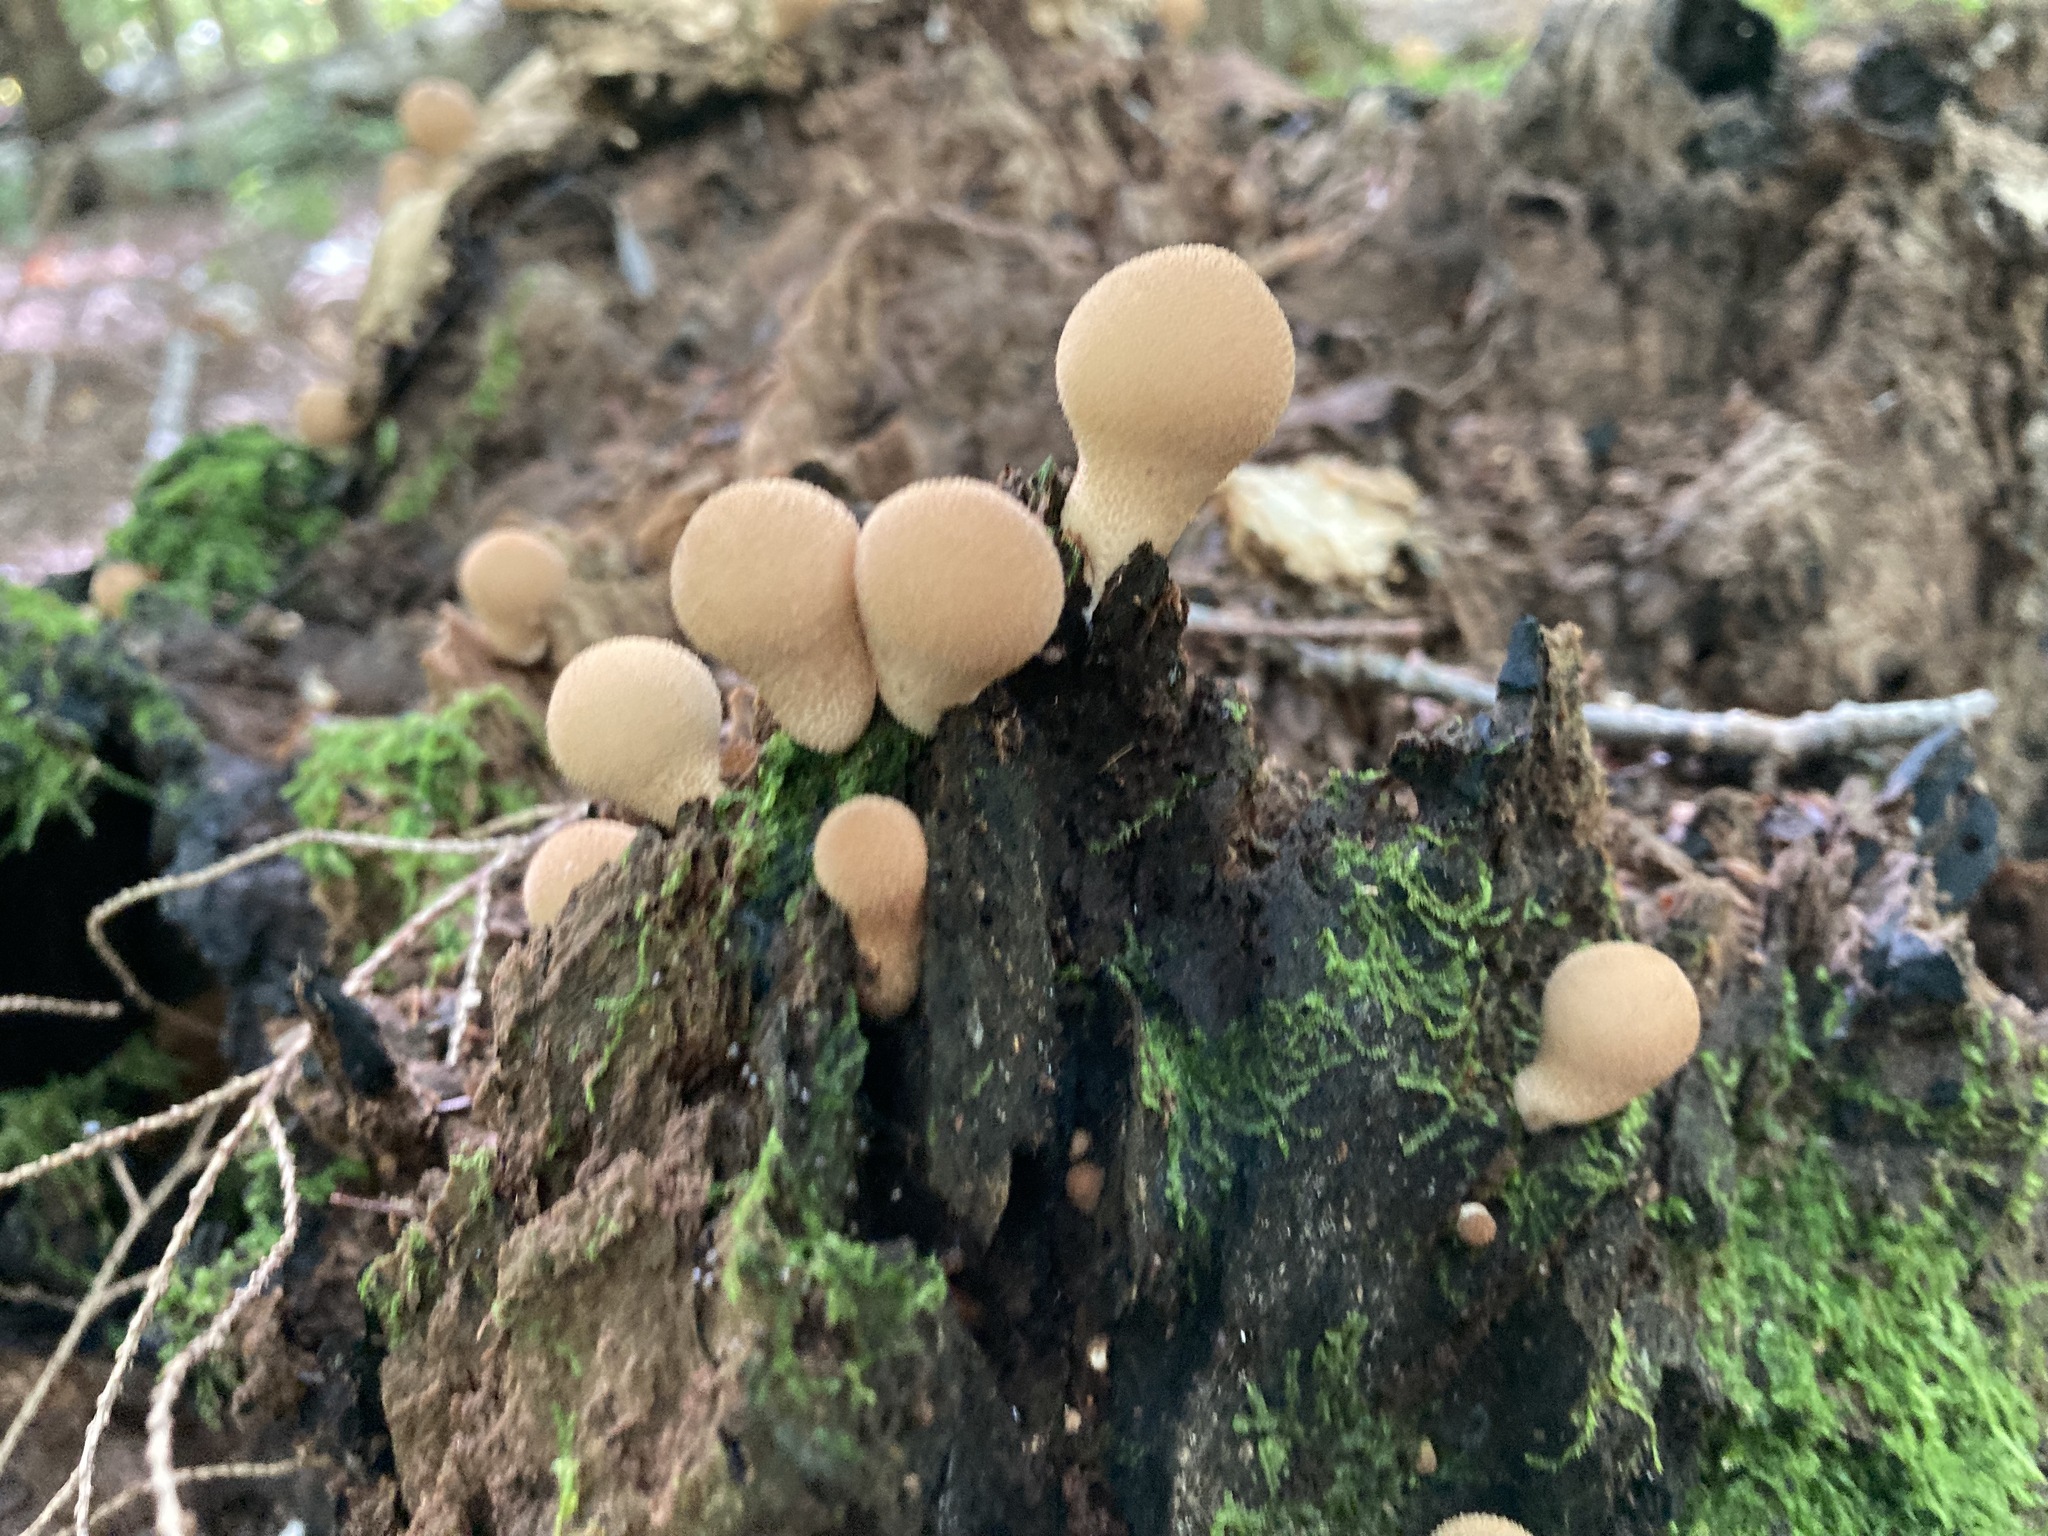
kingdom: Fungi
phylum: Basidiomycota
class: Agaricomycetes
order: Agaricales
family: Lycoperdaceae
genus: Apioperdon
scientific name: Apioperdon pyriforme
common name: Pear-shaped puffball
